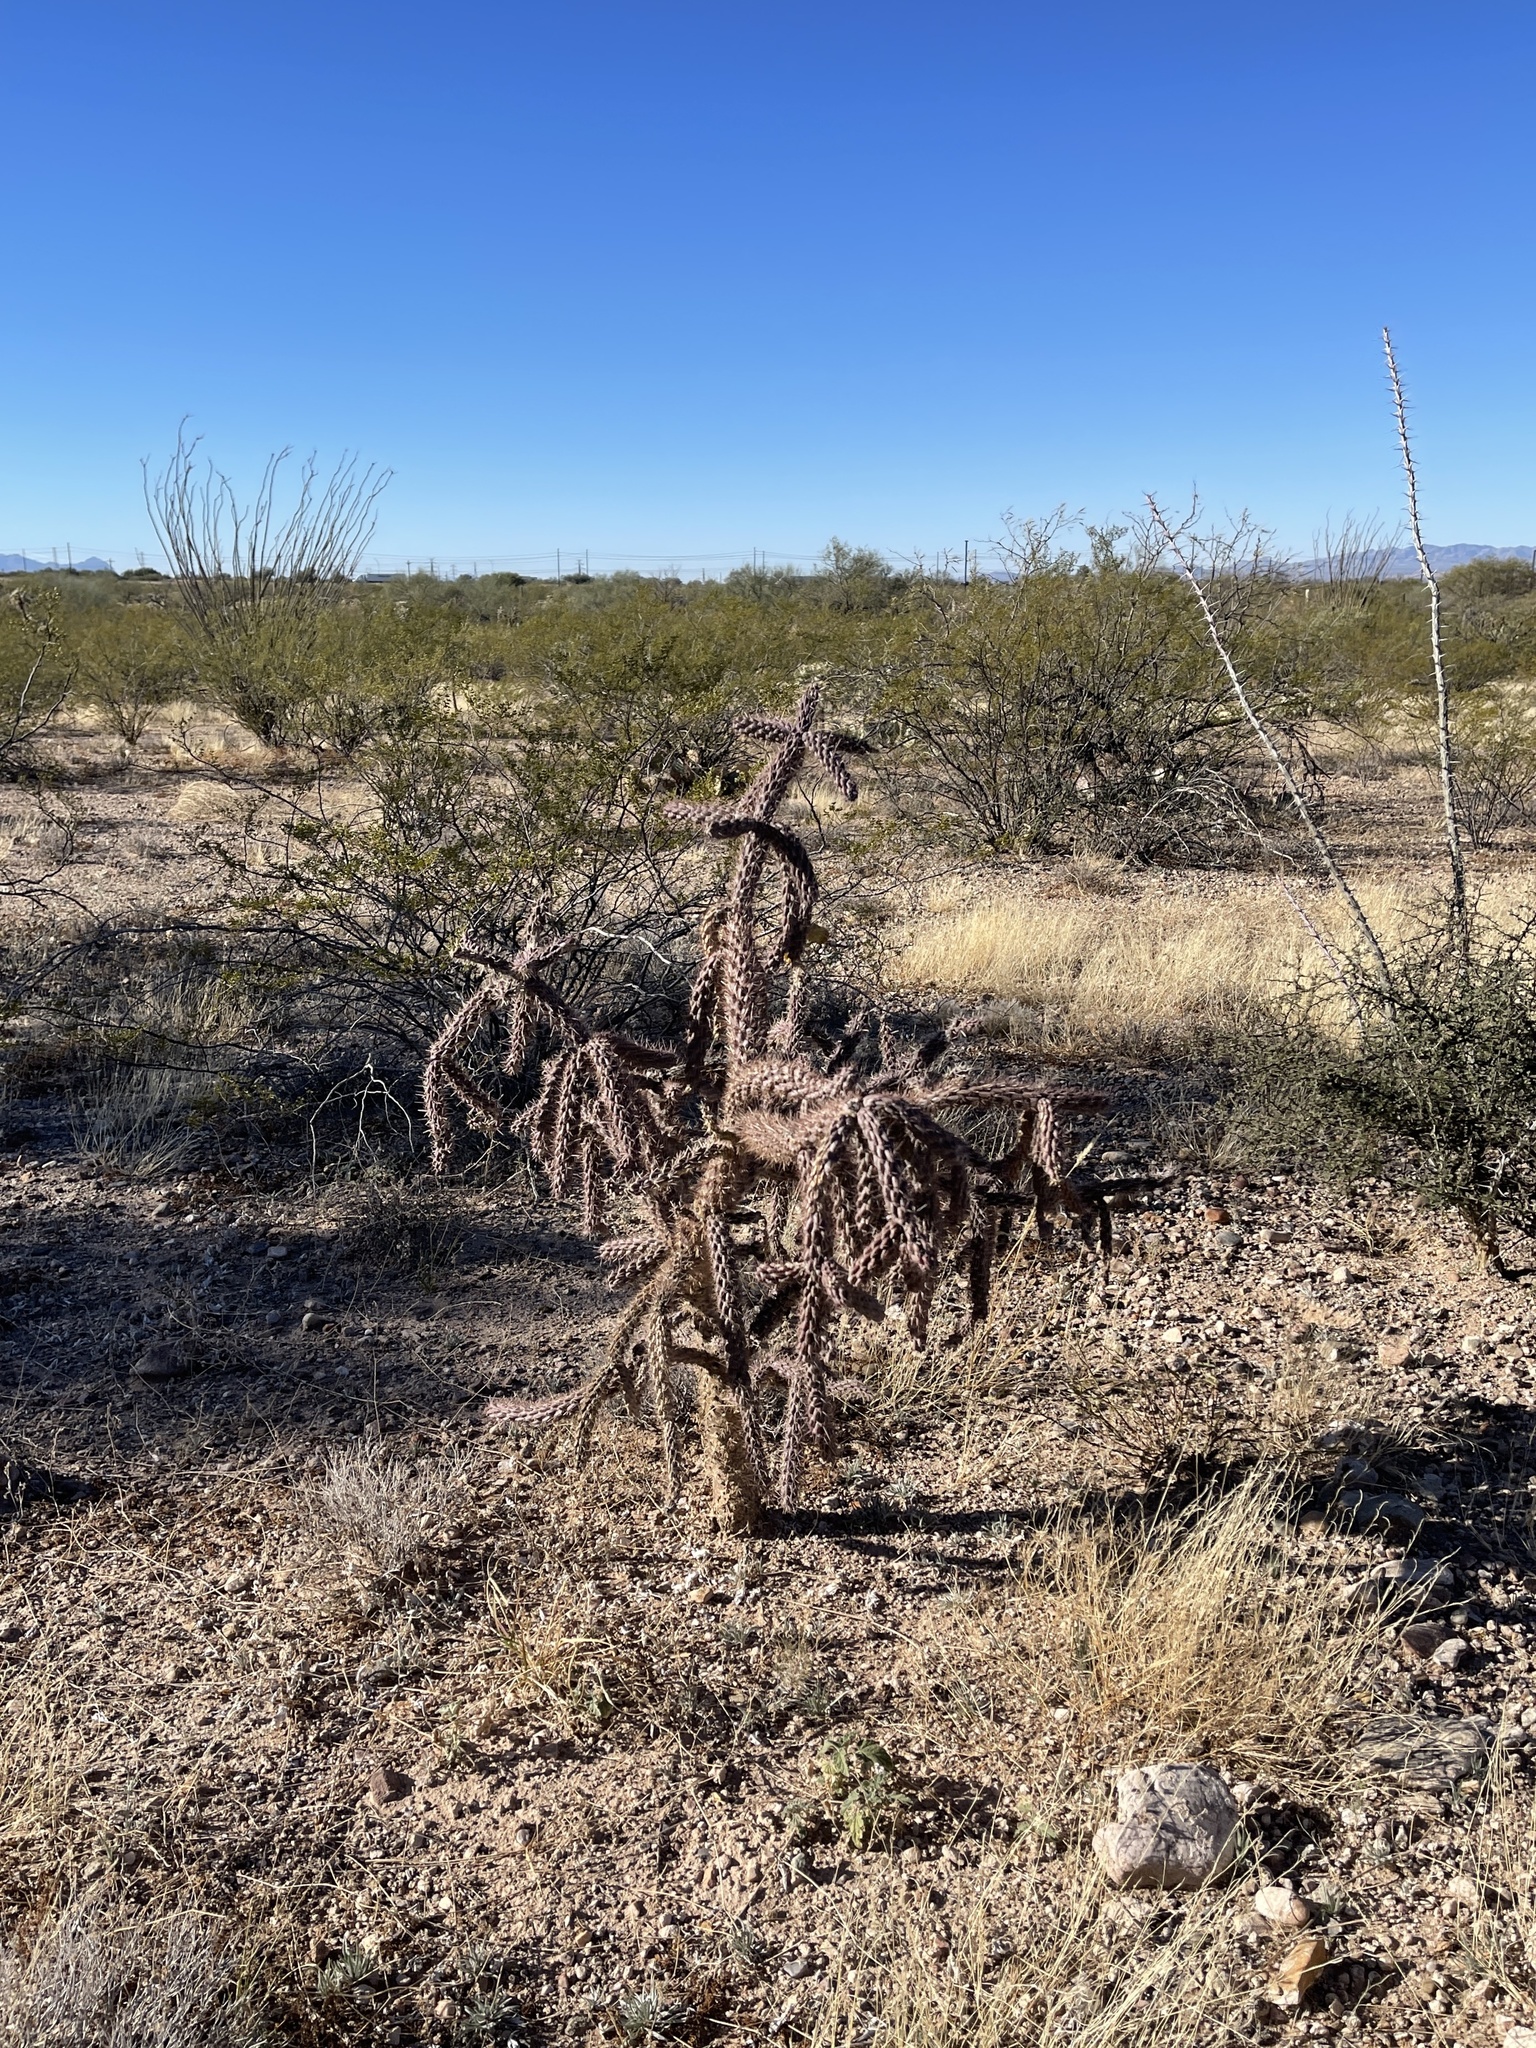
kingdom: Plantae
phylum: Tracheophyta
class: Magnoliopsida
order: Caryophyllales
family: Cactaceae
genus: Cylindropuntia
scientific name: Cylindropuntia thurberi
